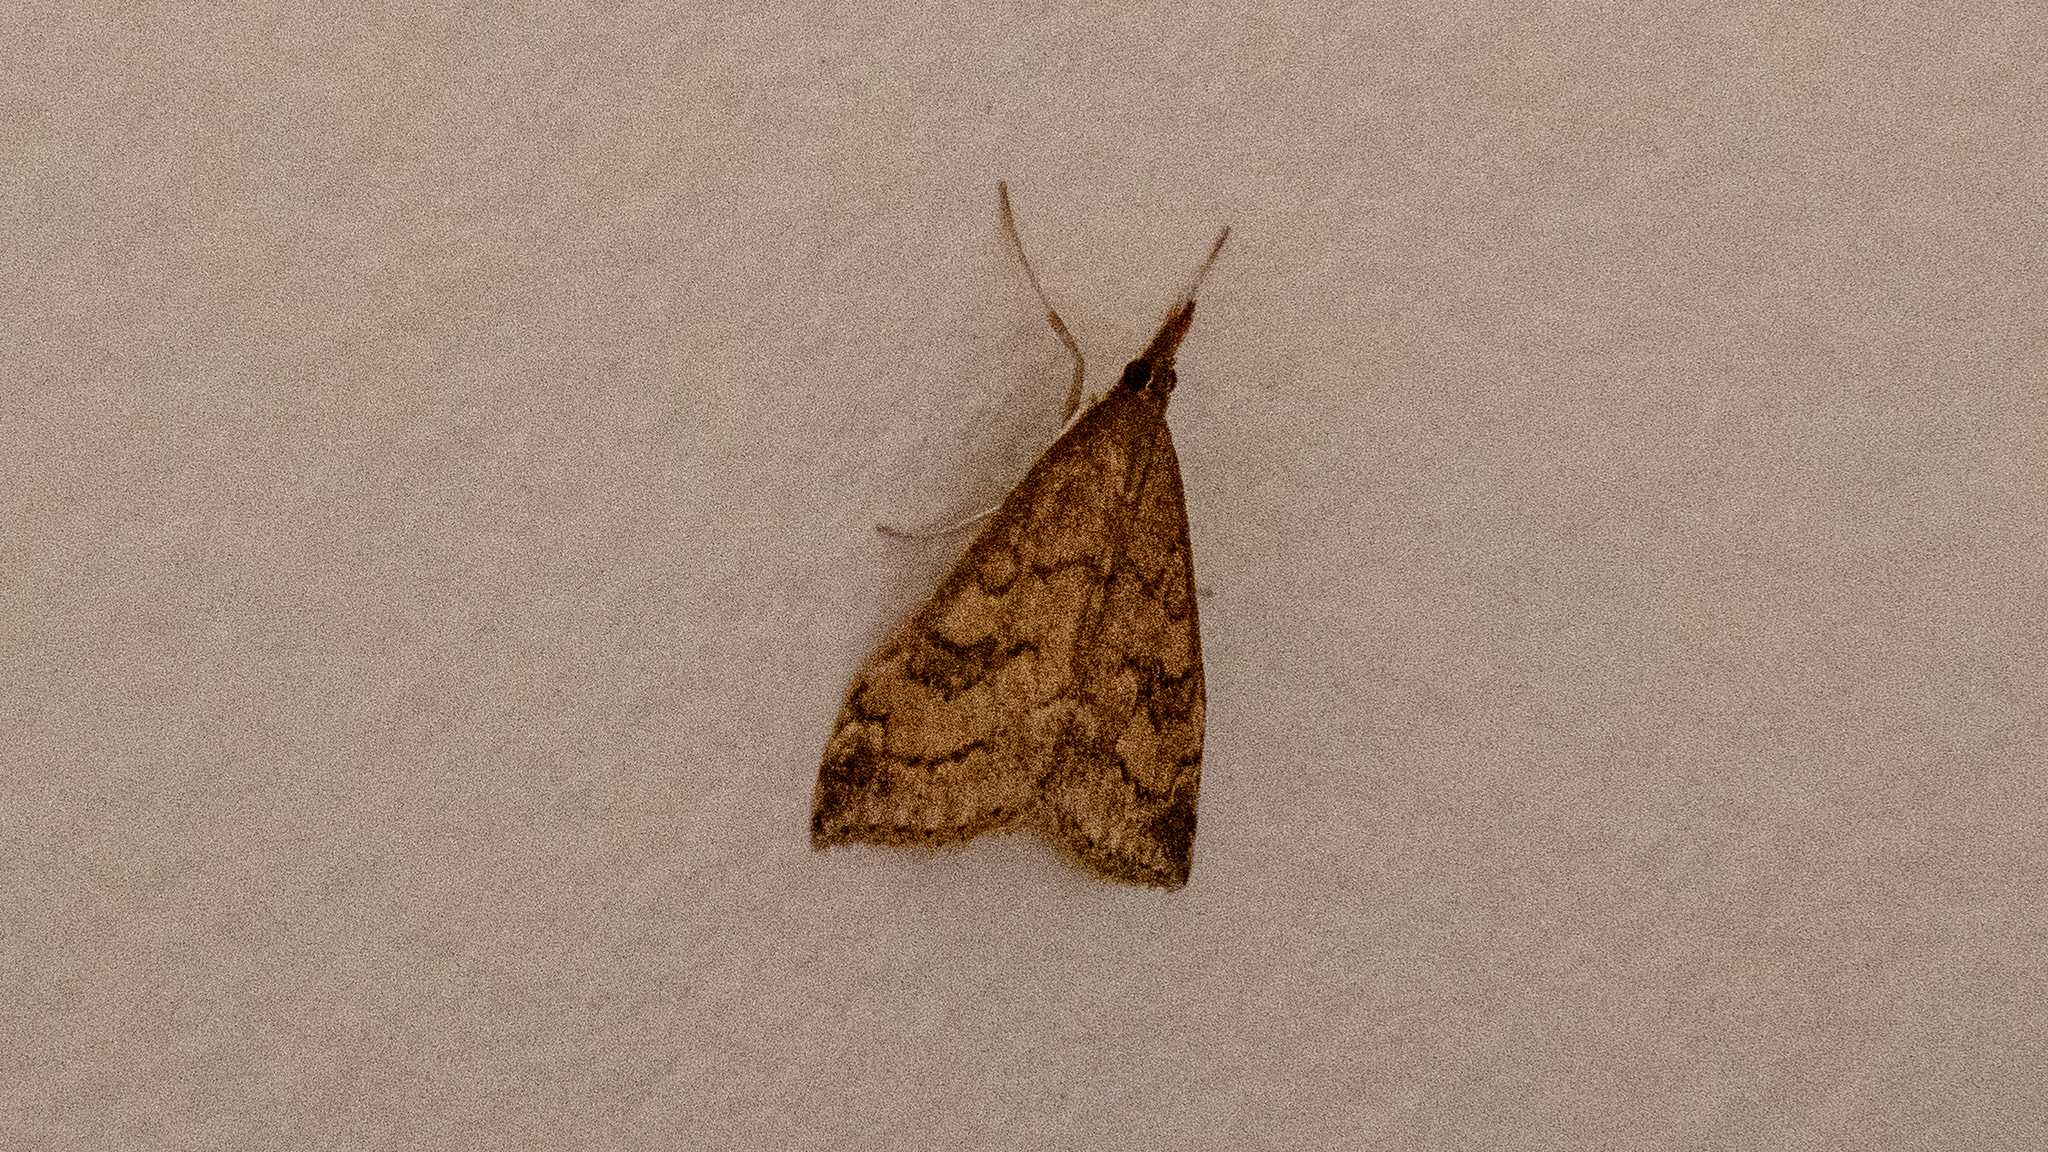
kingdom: Animalia
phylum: Arthropoda
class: Insecta
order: Lepidoptera
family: Crambidae
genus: Udea
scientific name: Udea profundalis
